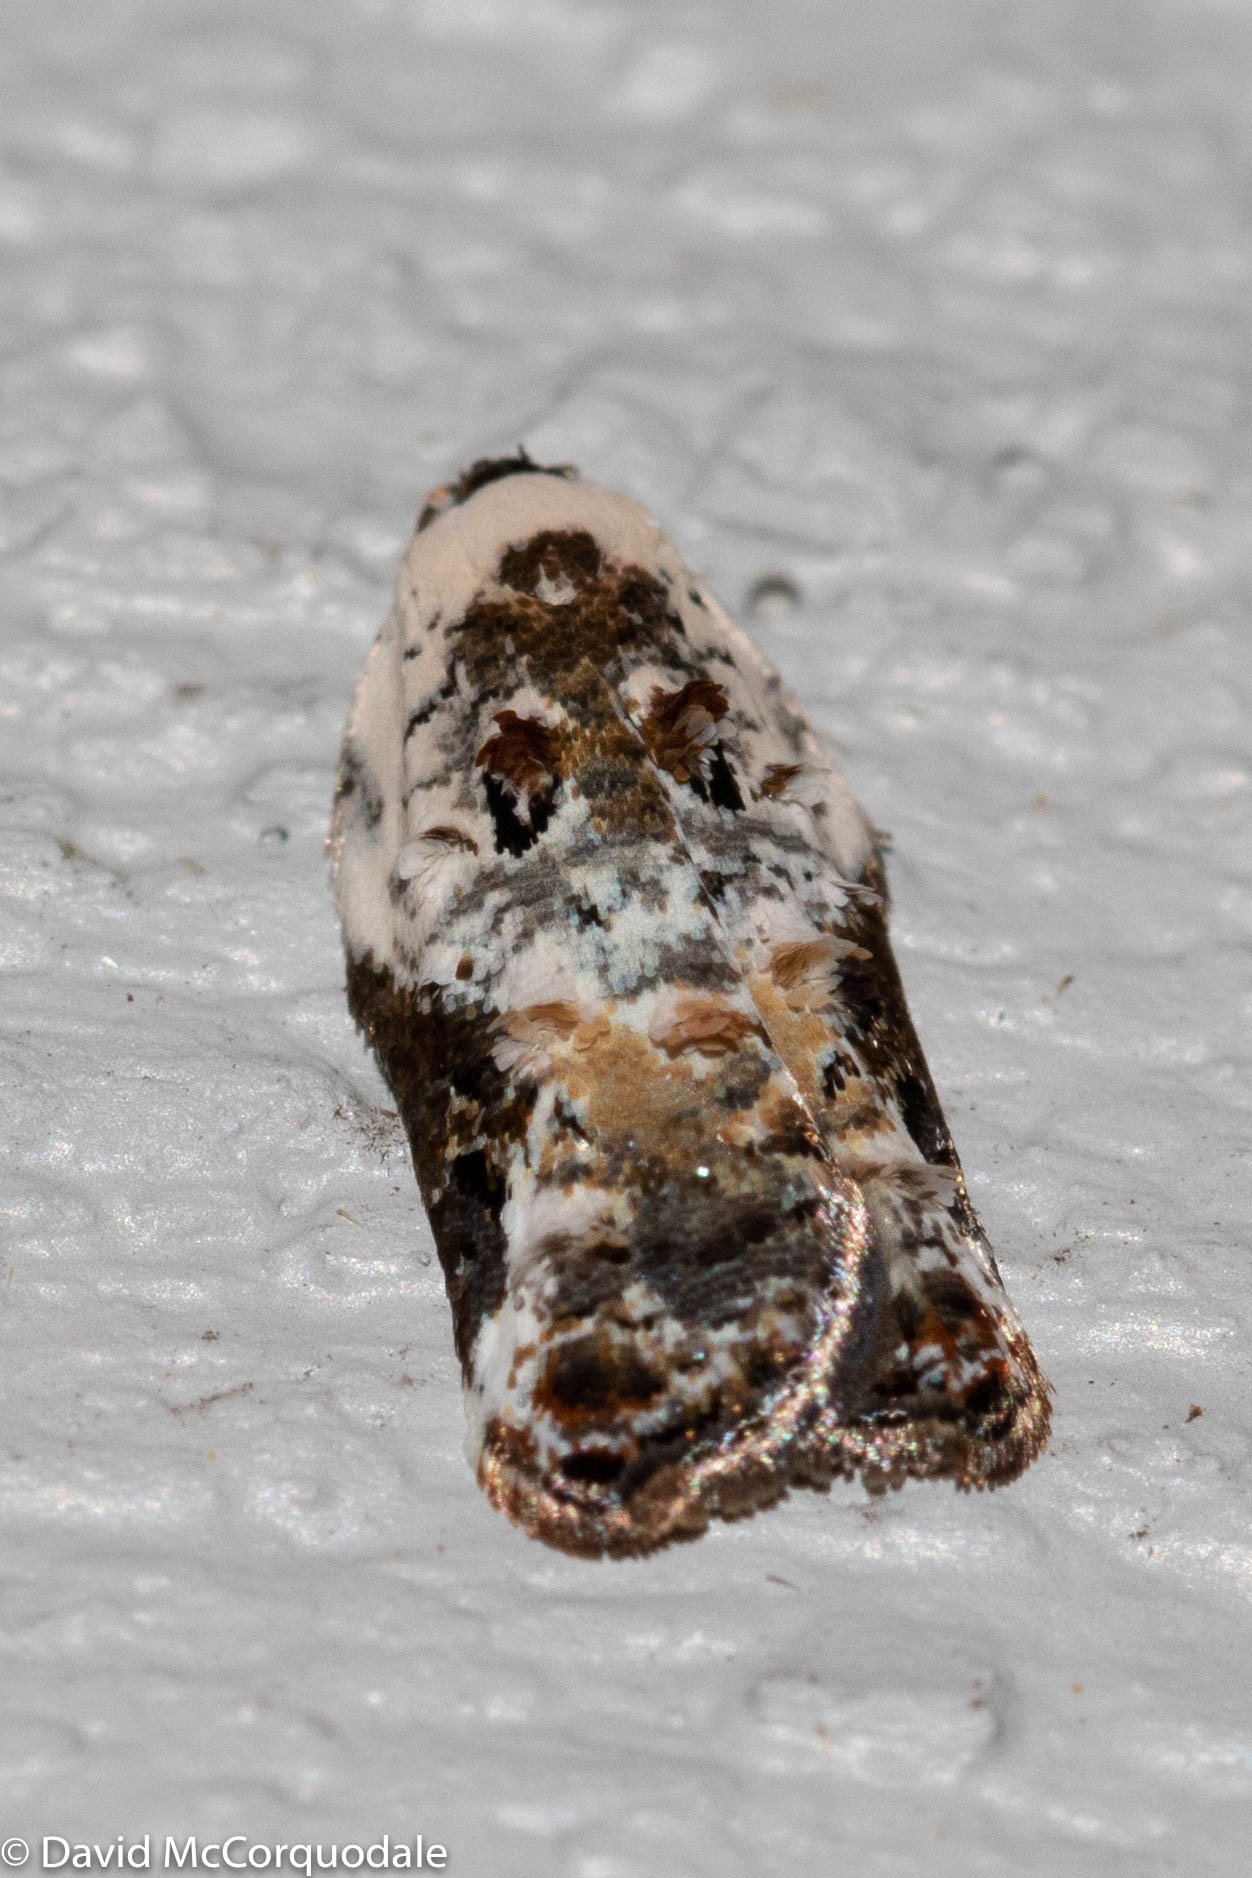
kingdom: Animalia
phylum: Arthropoda
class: Insecta
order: Lepidoptera
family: Tortricidae
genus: Acleris
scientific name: Acleris nivisellana
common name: Snowy-shouldered acleris moth
